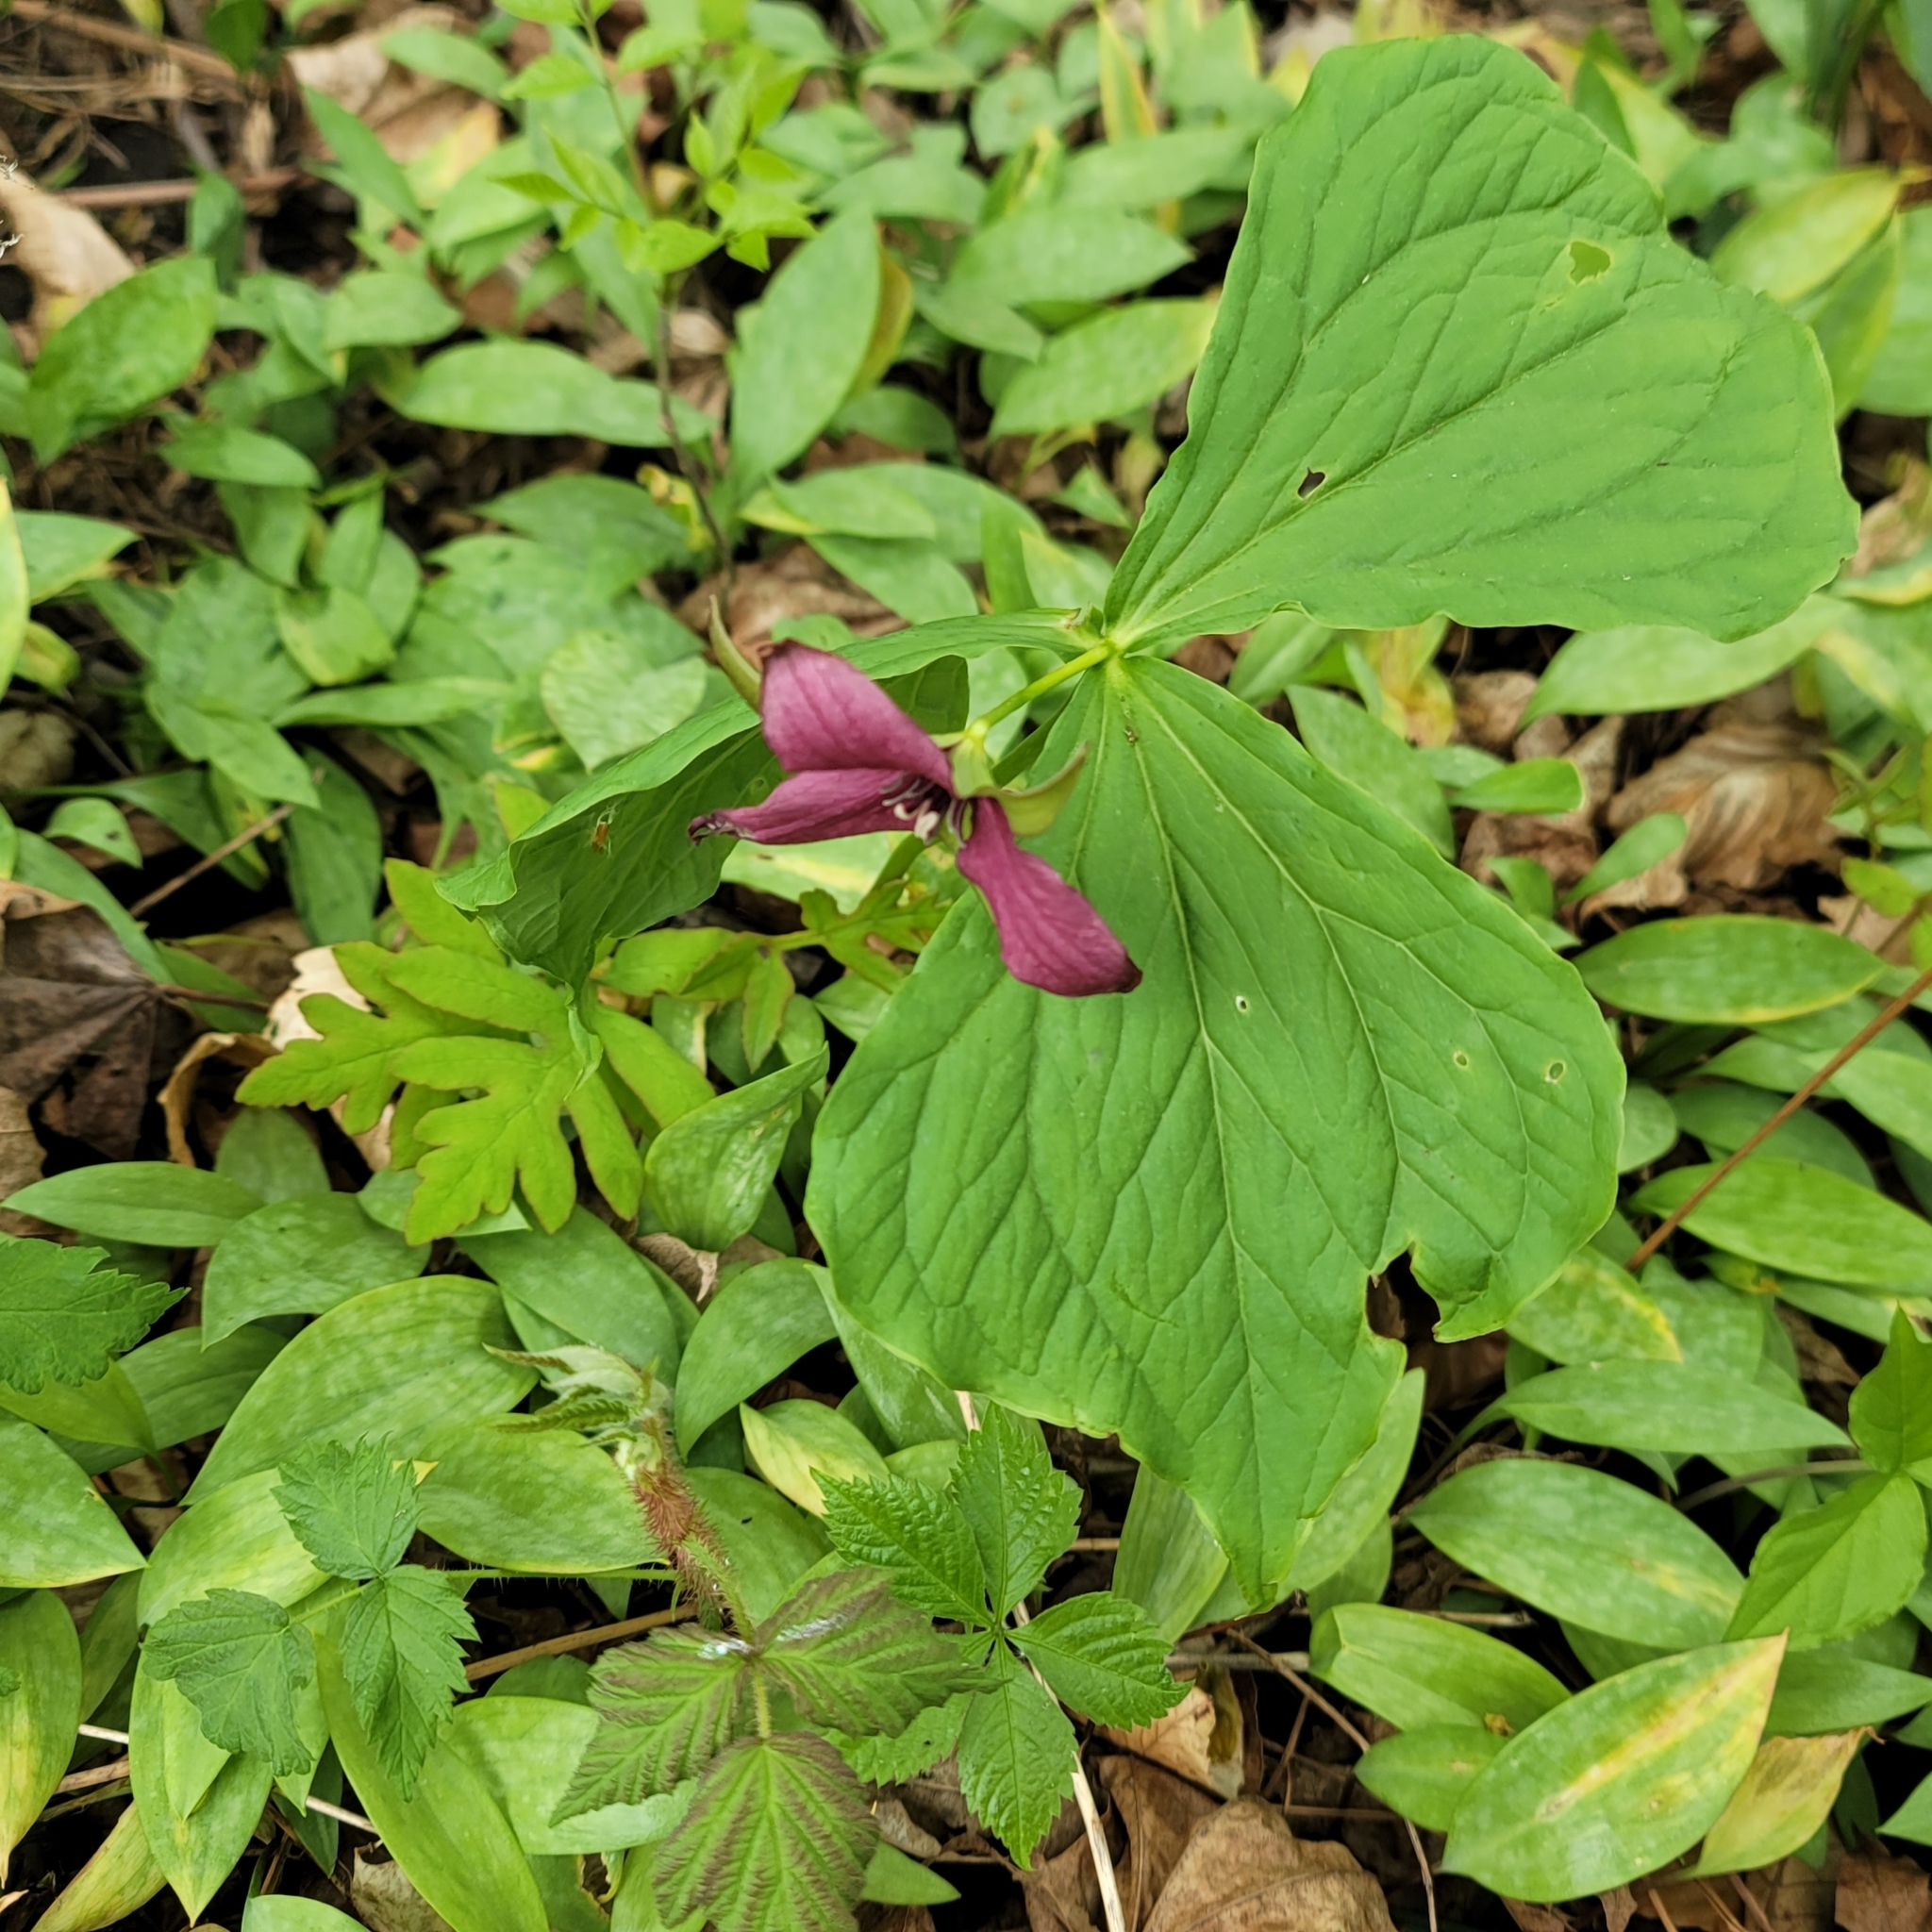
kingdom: Plantae
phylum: Tracheophyta
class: Liliopsida
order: Liliales
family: Melanthiaceae
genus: Trillium
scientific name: Trillium erectum
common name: Purple trillium
